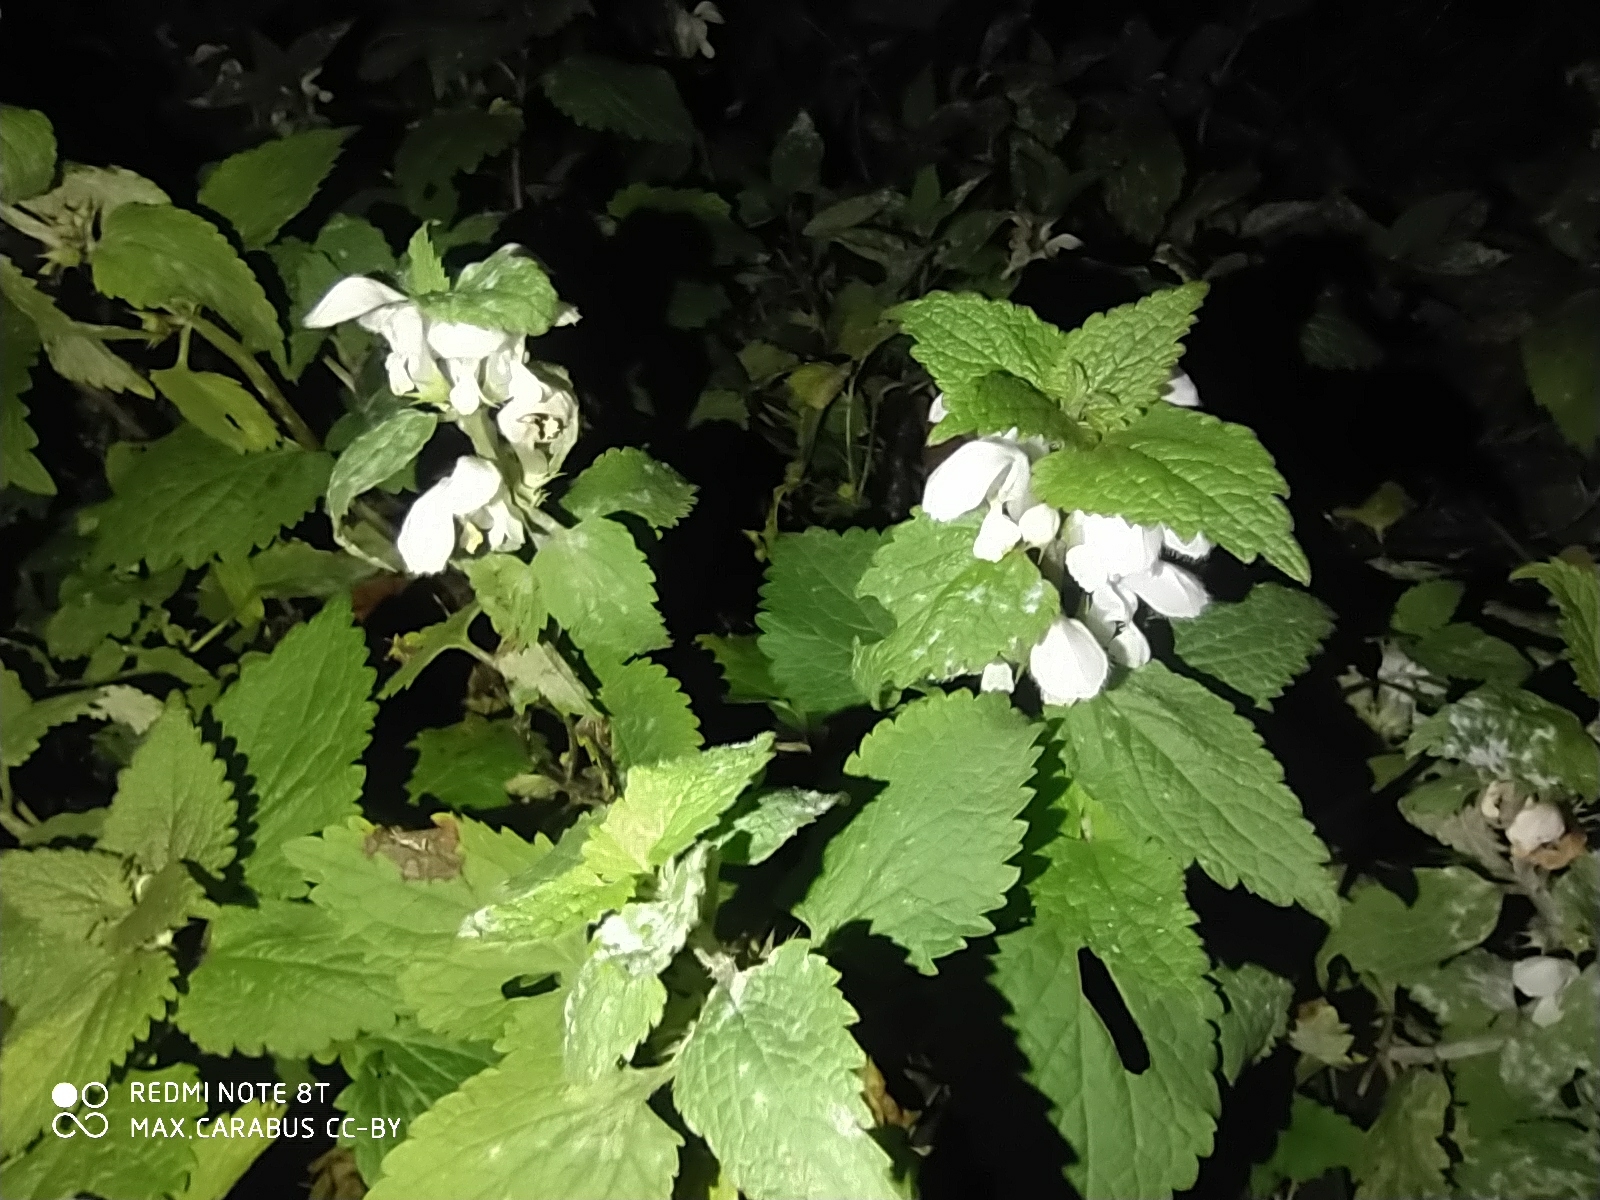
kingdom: Plantae
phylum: Tracheophyta
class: Magnoliopsida
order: Lamiales
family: Lamiaceae
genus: Lamium
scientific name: Lamium album
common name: White dead-nettle
